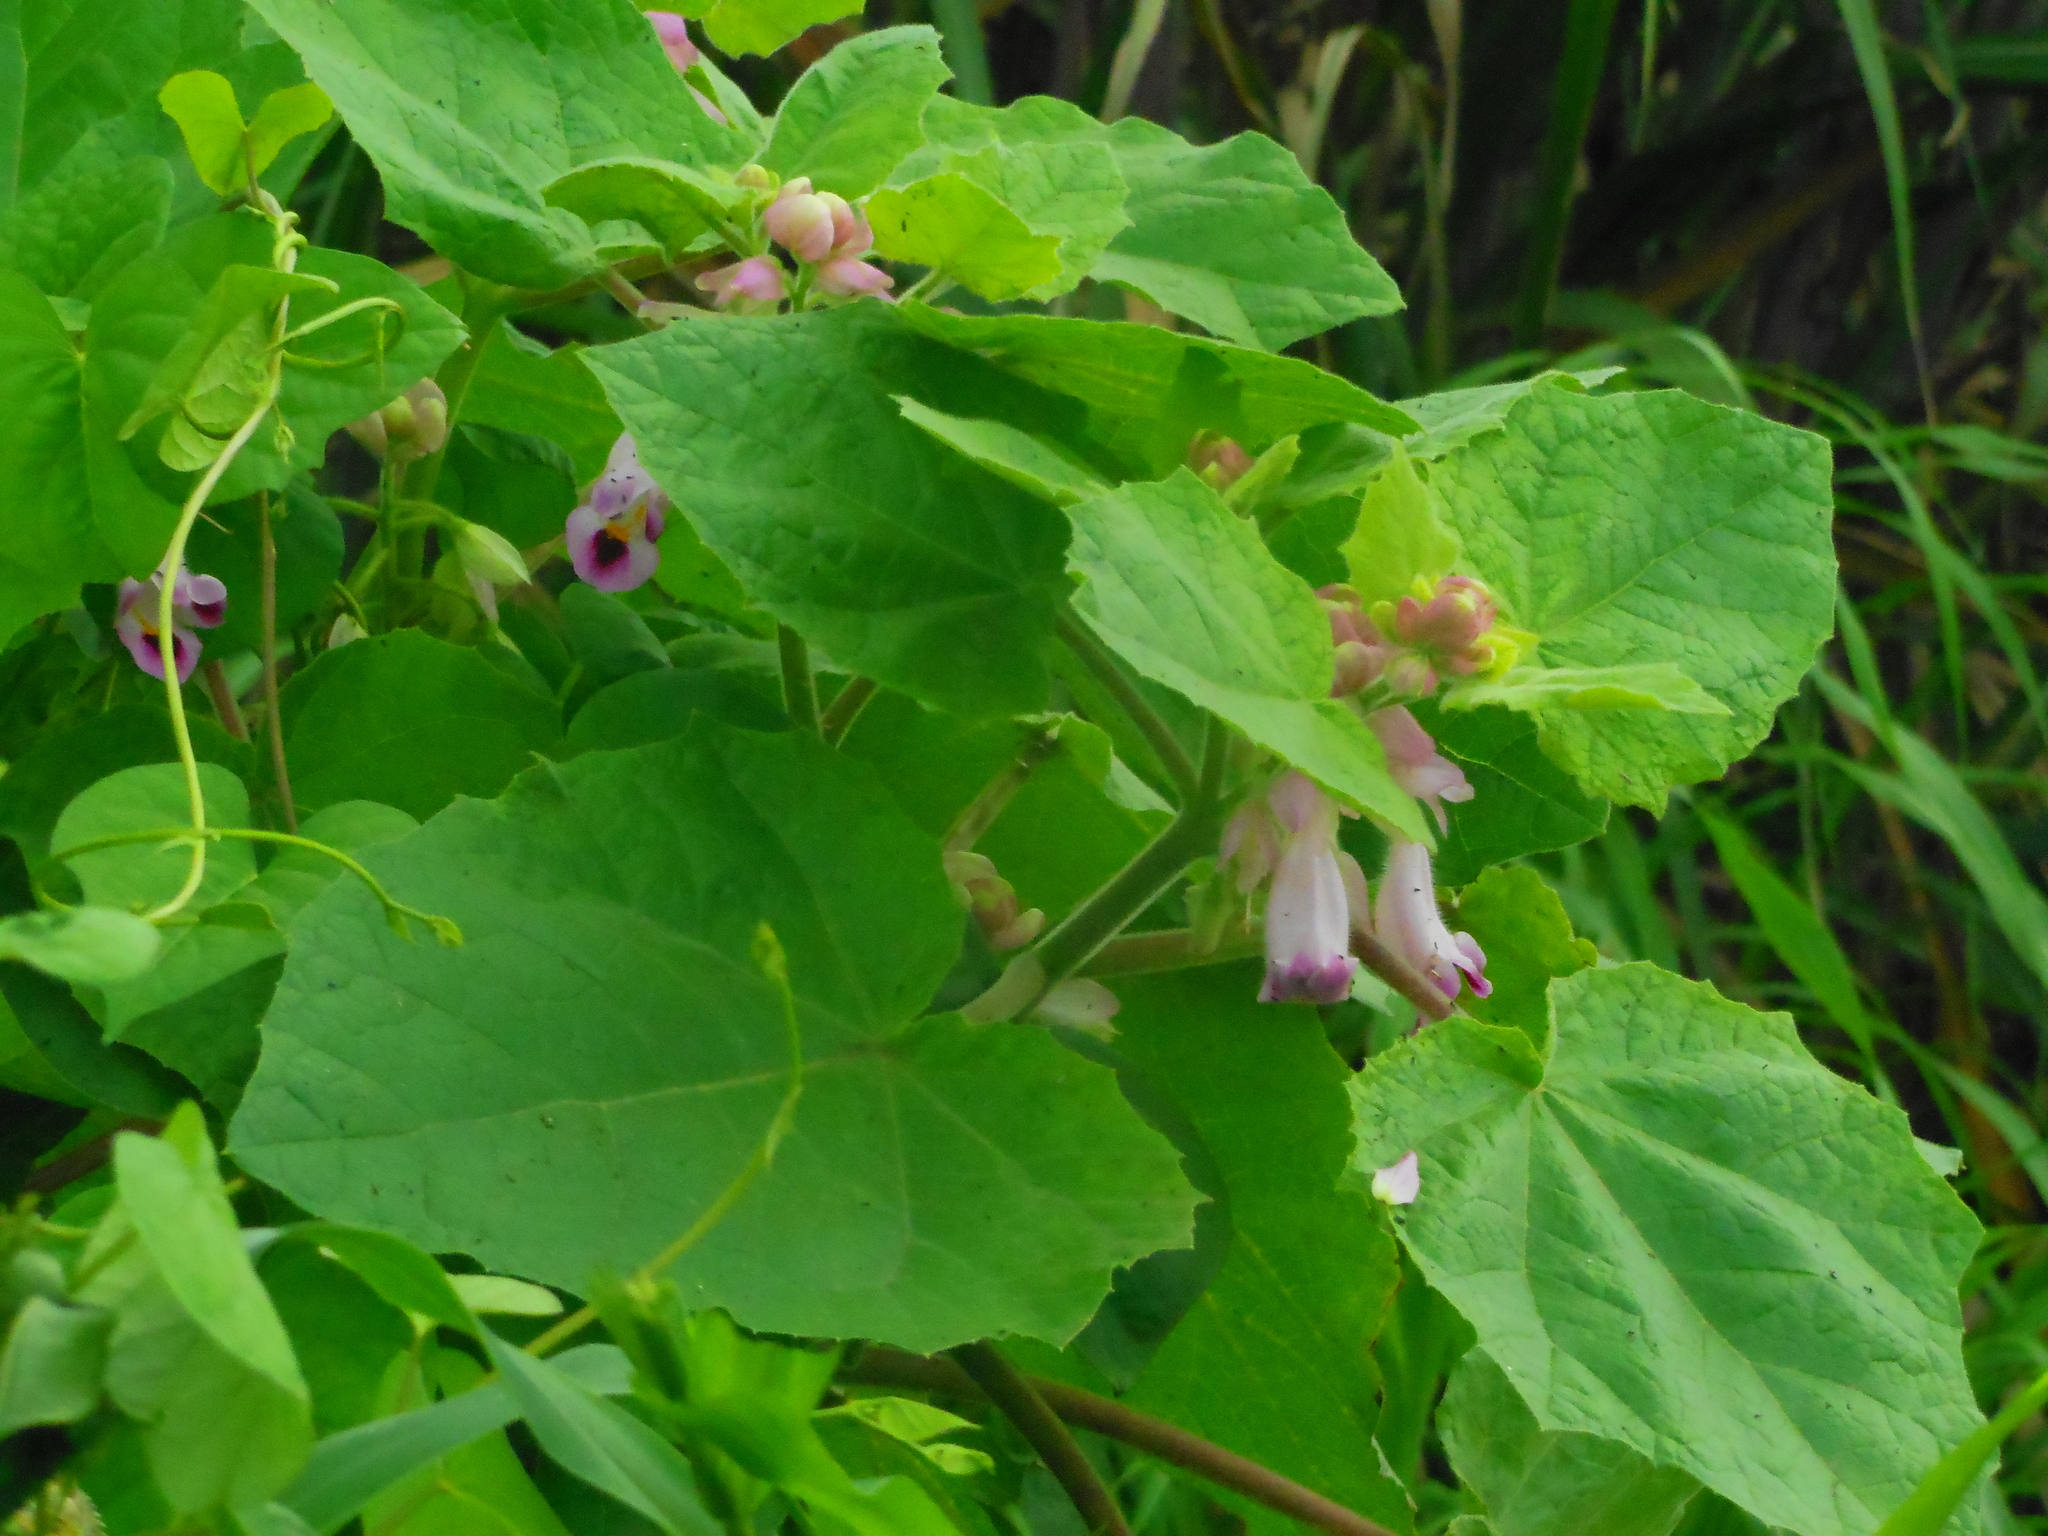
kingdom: Plantae
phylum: Tracheophyta
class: Magnoliopsida
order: Lamiales
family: Martyniaceae
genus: Martynia
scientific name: Martynia annua
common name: Tiger's-claw
